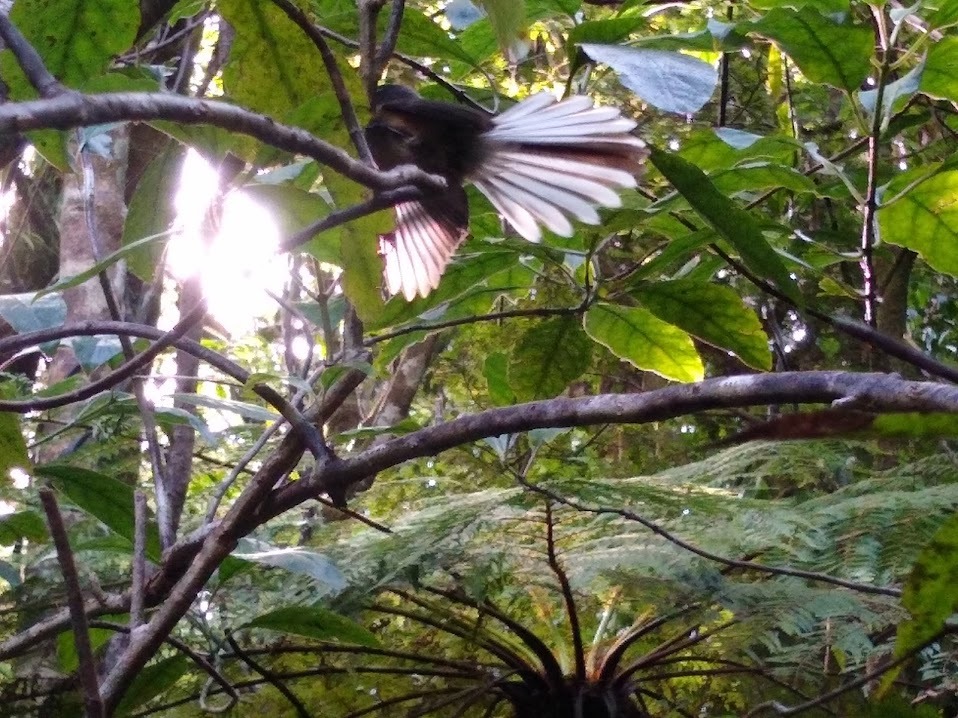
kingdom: Animalia
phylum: Chordata
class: Aves
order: Passeriformes
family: Rhipiduridae
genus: Rhipidura
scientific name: Rhipidura fuliginosa
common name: New zealand fantail
